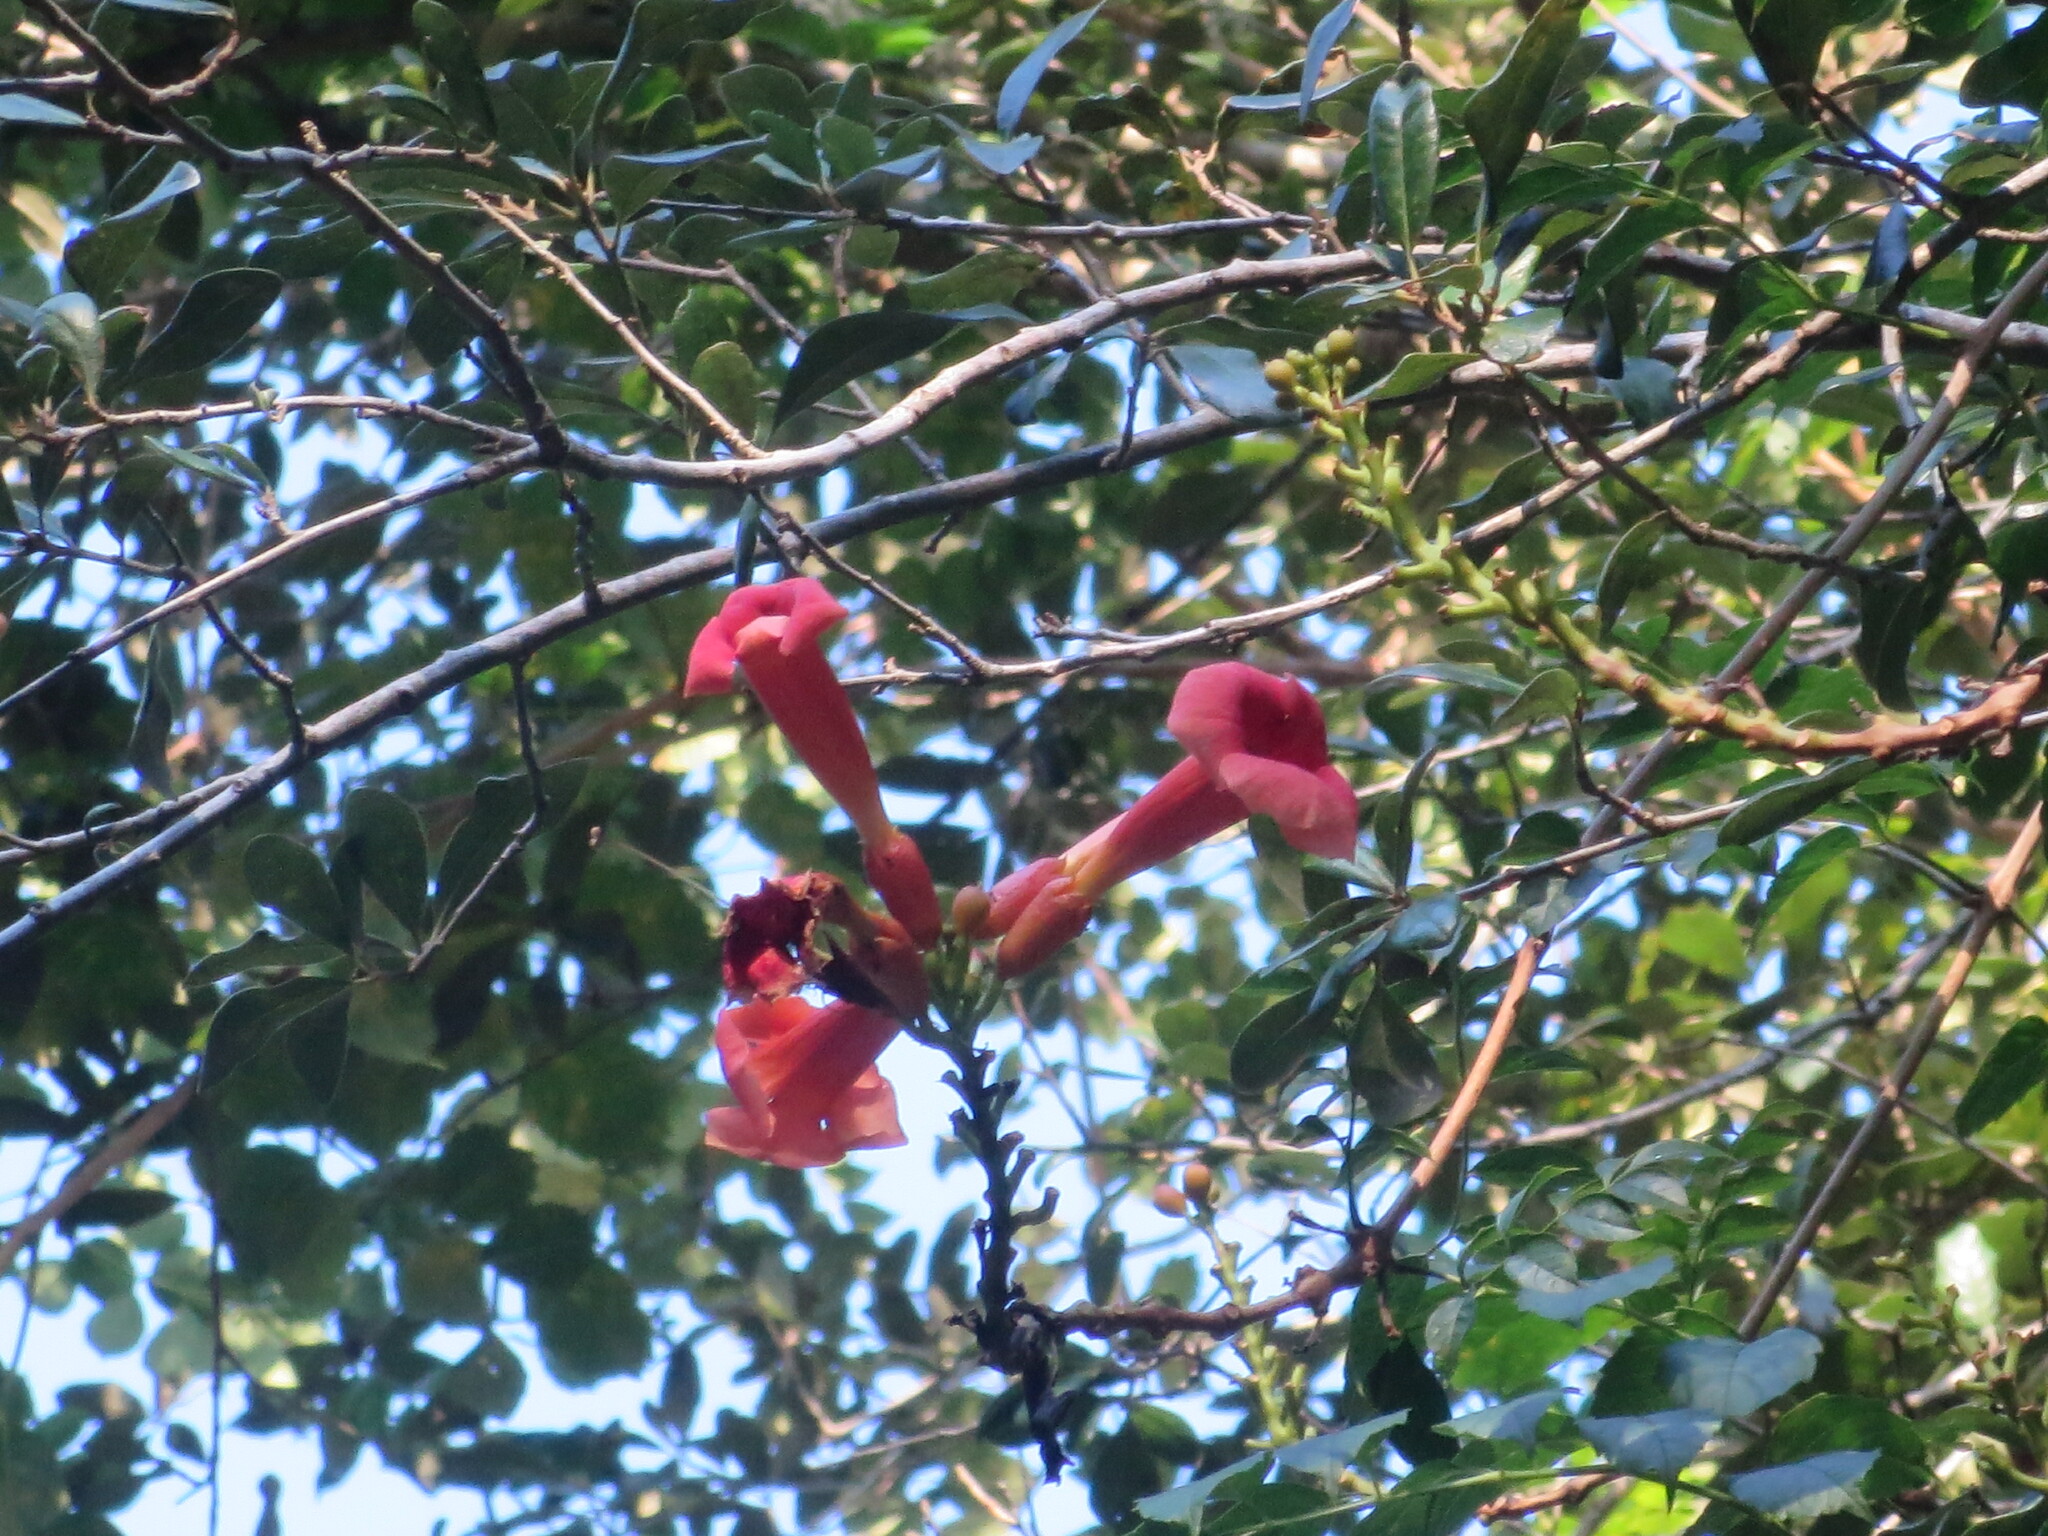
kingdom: Plantae
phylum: Tracheophyta
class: Magnoliopsida
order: Lamiales
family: Bignoniaceae
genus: Campsis
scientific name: Campsis radicans
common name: Trumpet-creeper
